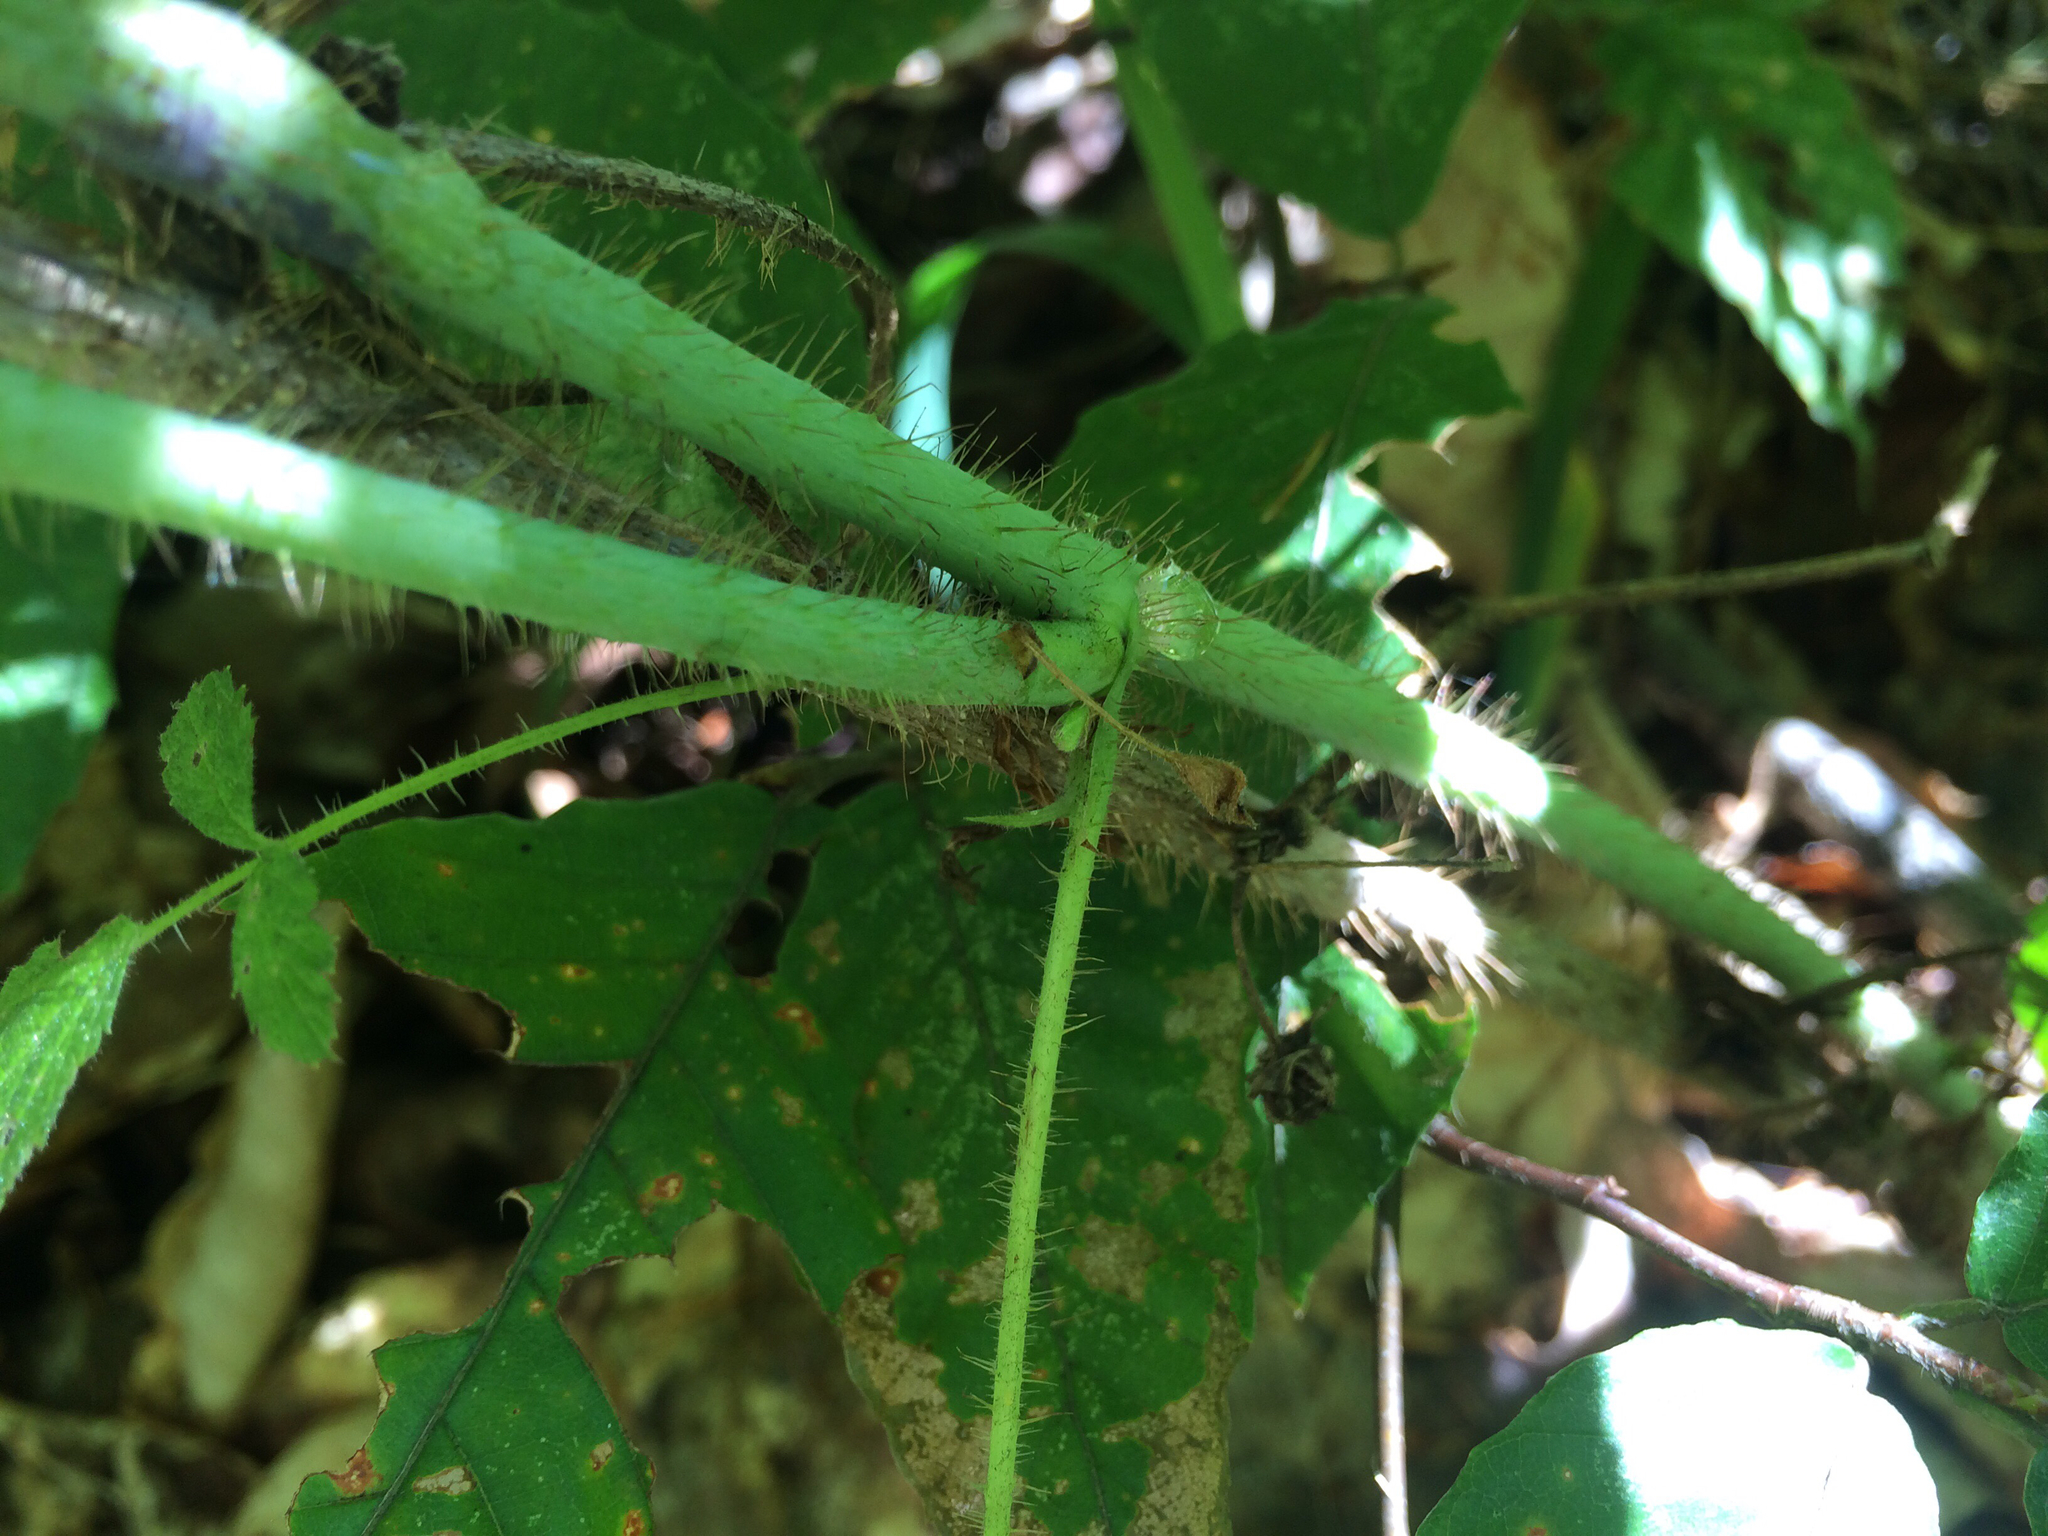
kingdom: Plantae
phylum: Tracheophyta
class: Magnoliopsida
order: Rosales
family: Rosaceae
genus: Rubus
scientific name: Rubus idaeus
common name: Raspberry
